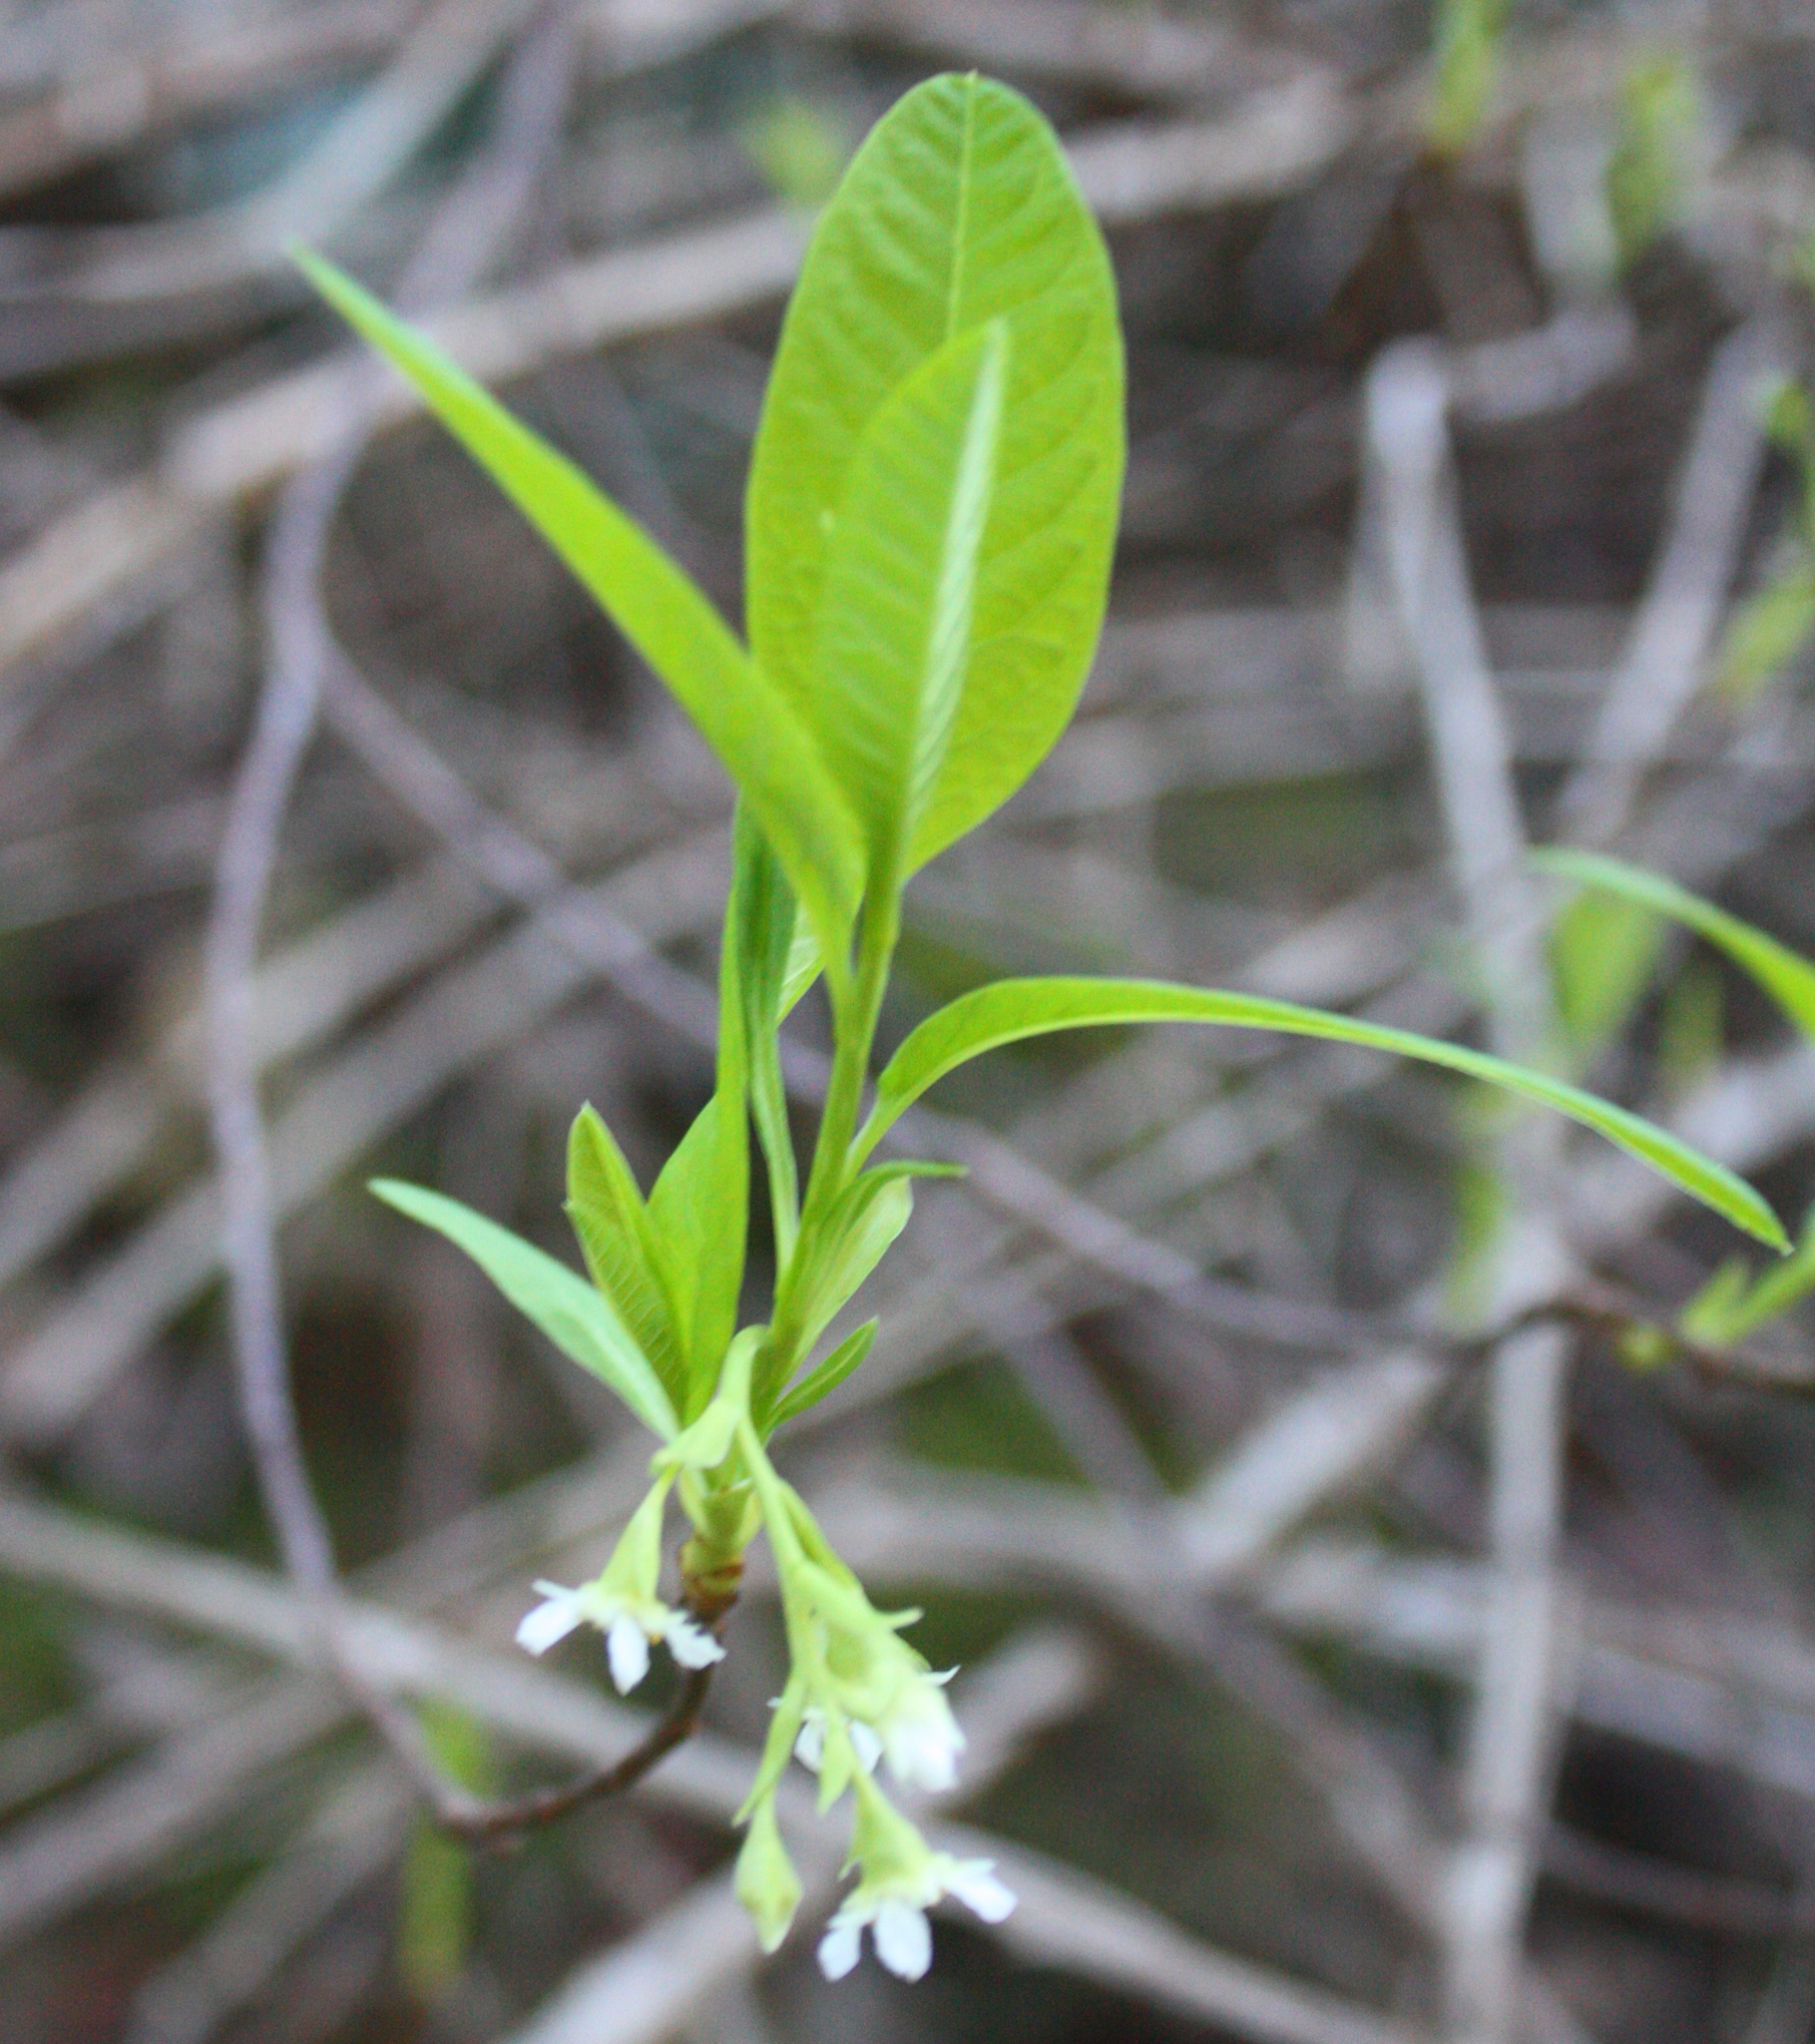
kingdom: Plantae
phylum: Tracheophyta
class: Magnoliopsida
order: Rosales
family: Rosaceae
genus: Oemleria
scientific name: Oemleria cerasiformis
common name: Osoberry
